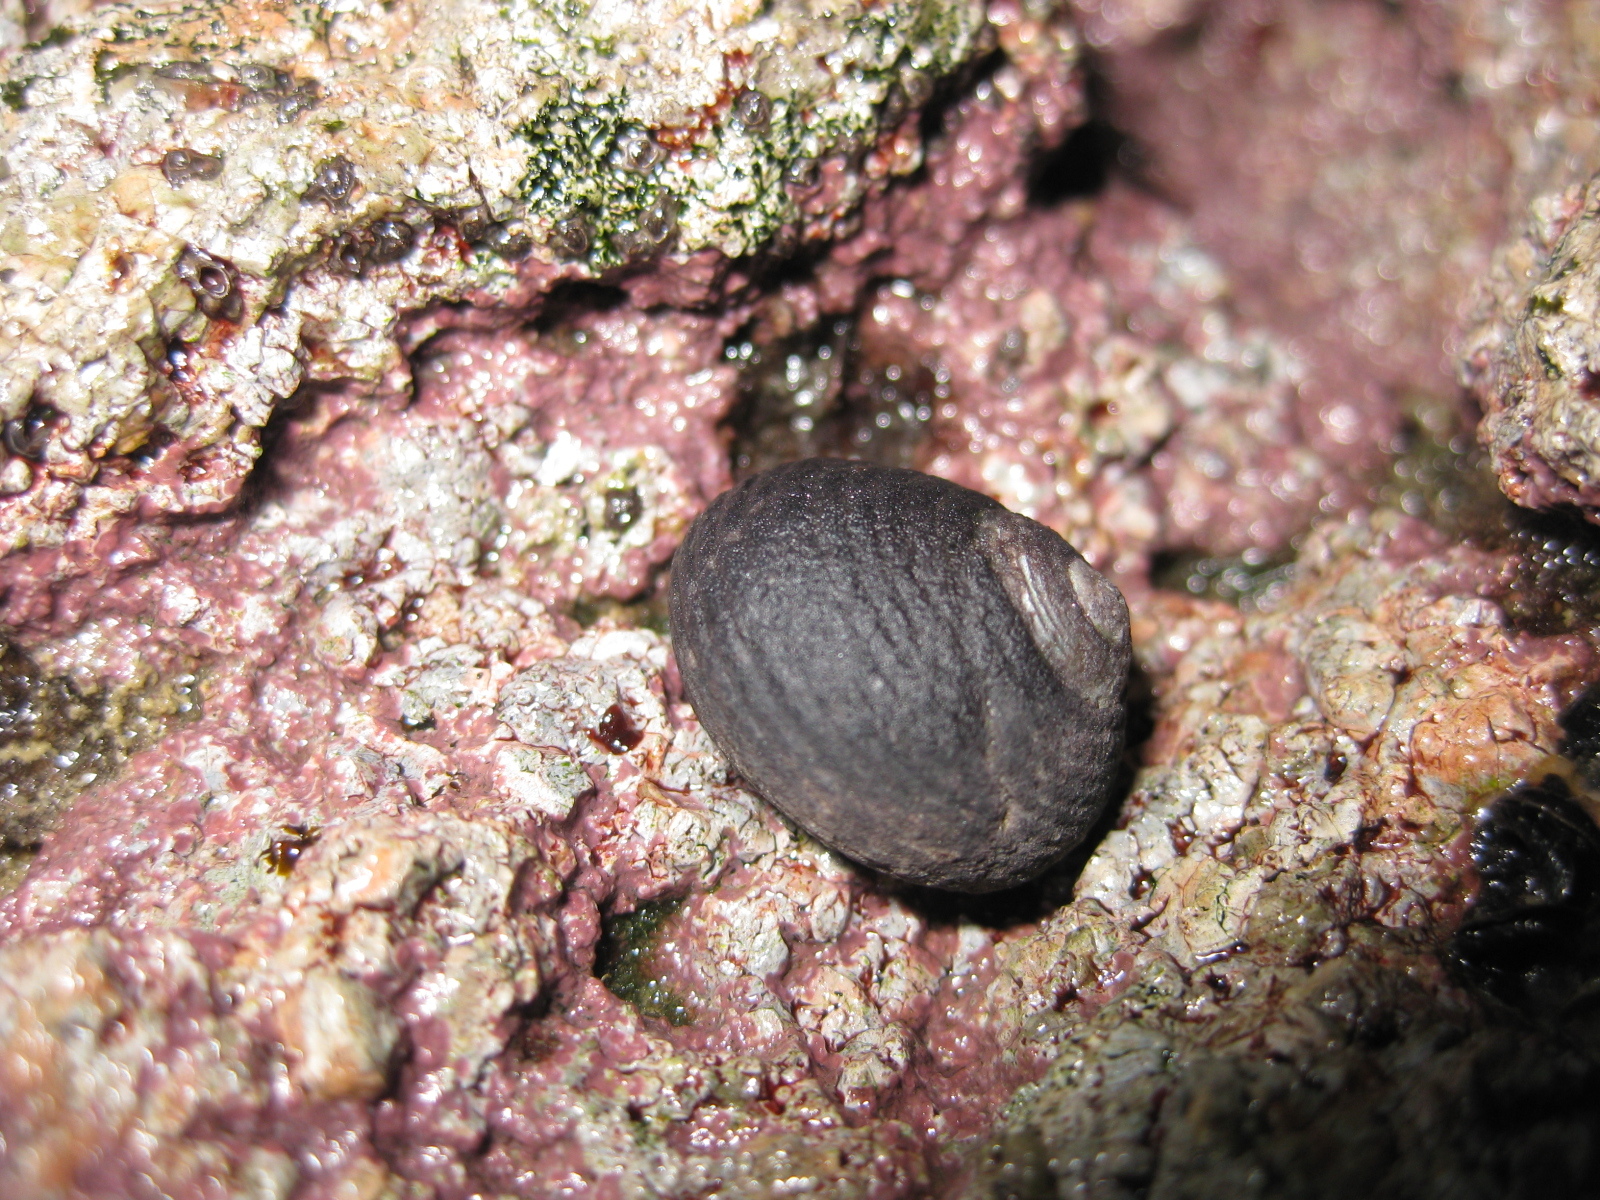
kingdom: Animalia
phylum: Mollusca
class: Gastropoda
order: Trochida
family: Trochidae
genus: Diloma
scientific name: Diloma zelandicum
